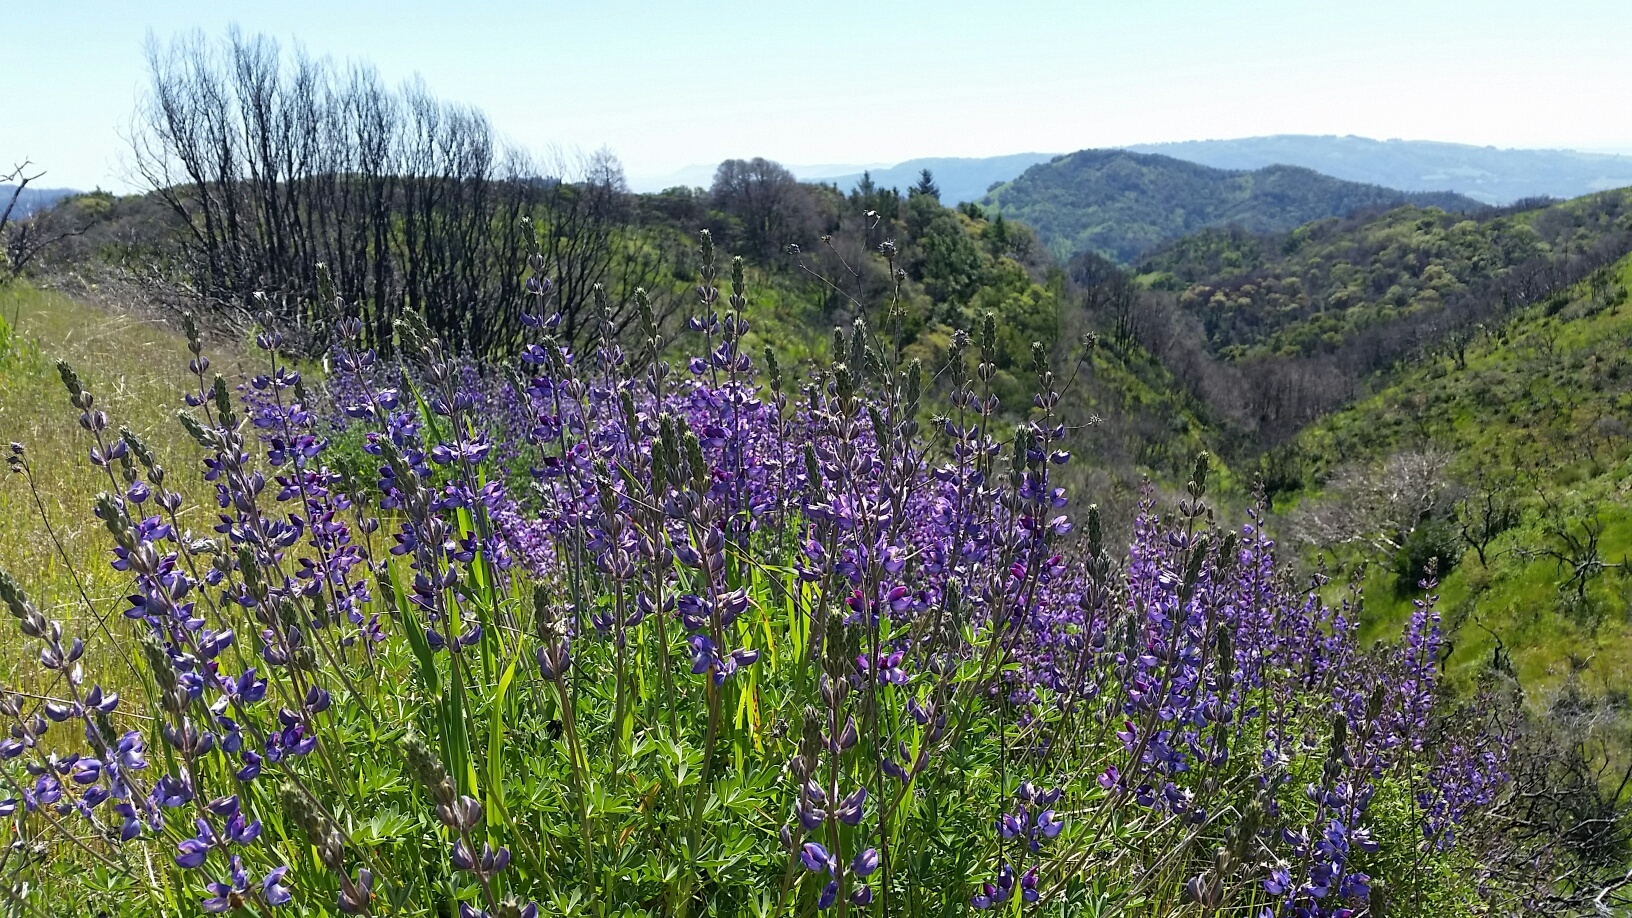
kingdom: Plantae
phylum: Tracheophyta
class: Magnoliopsida
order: Fabales
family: Fabaceae
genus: Lupinus
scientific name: Lupinus albifrons
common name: Foothill lupine
